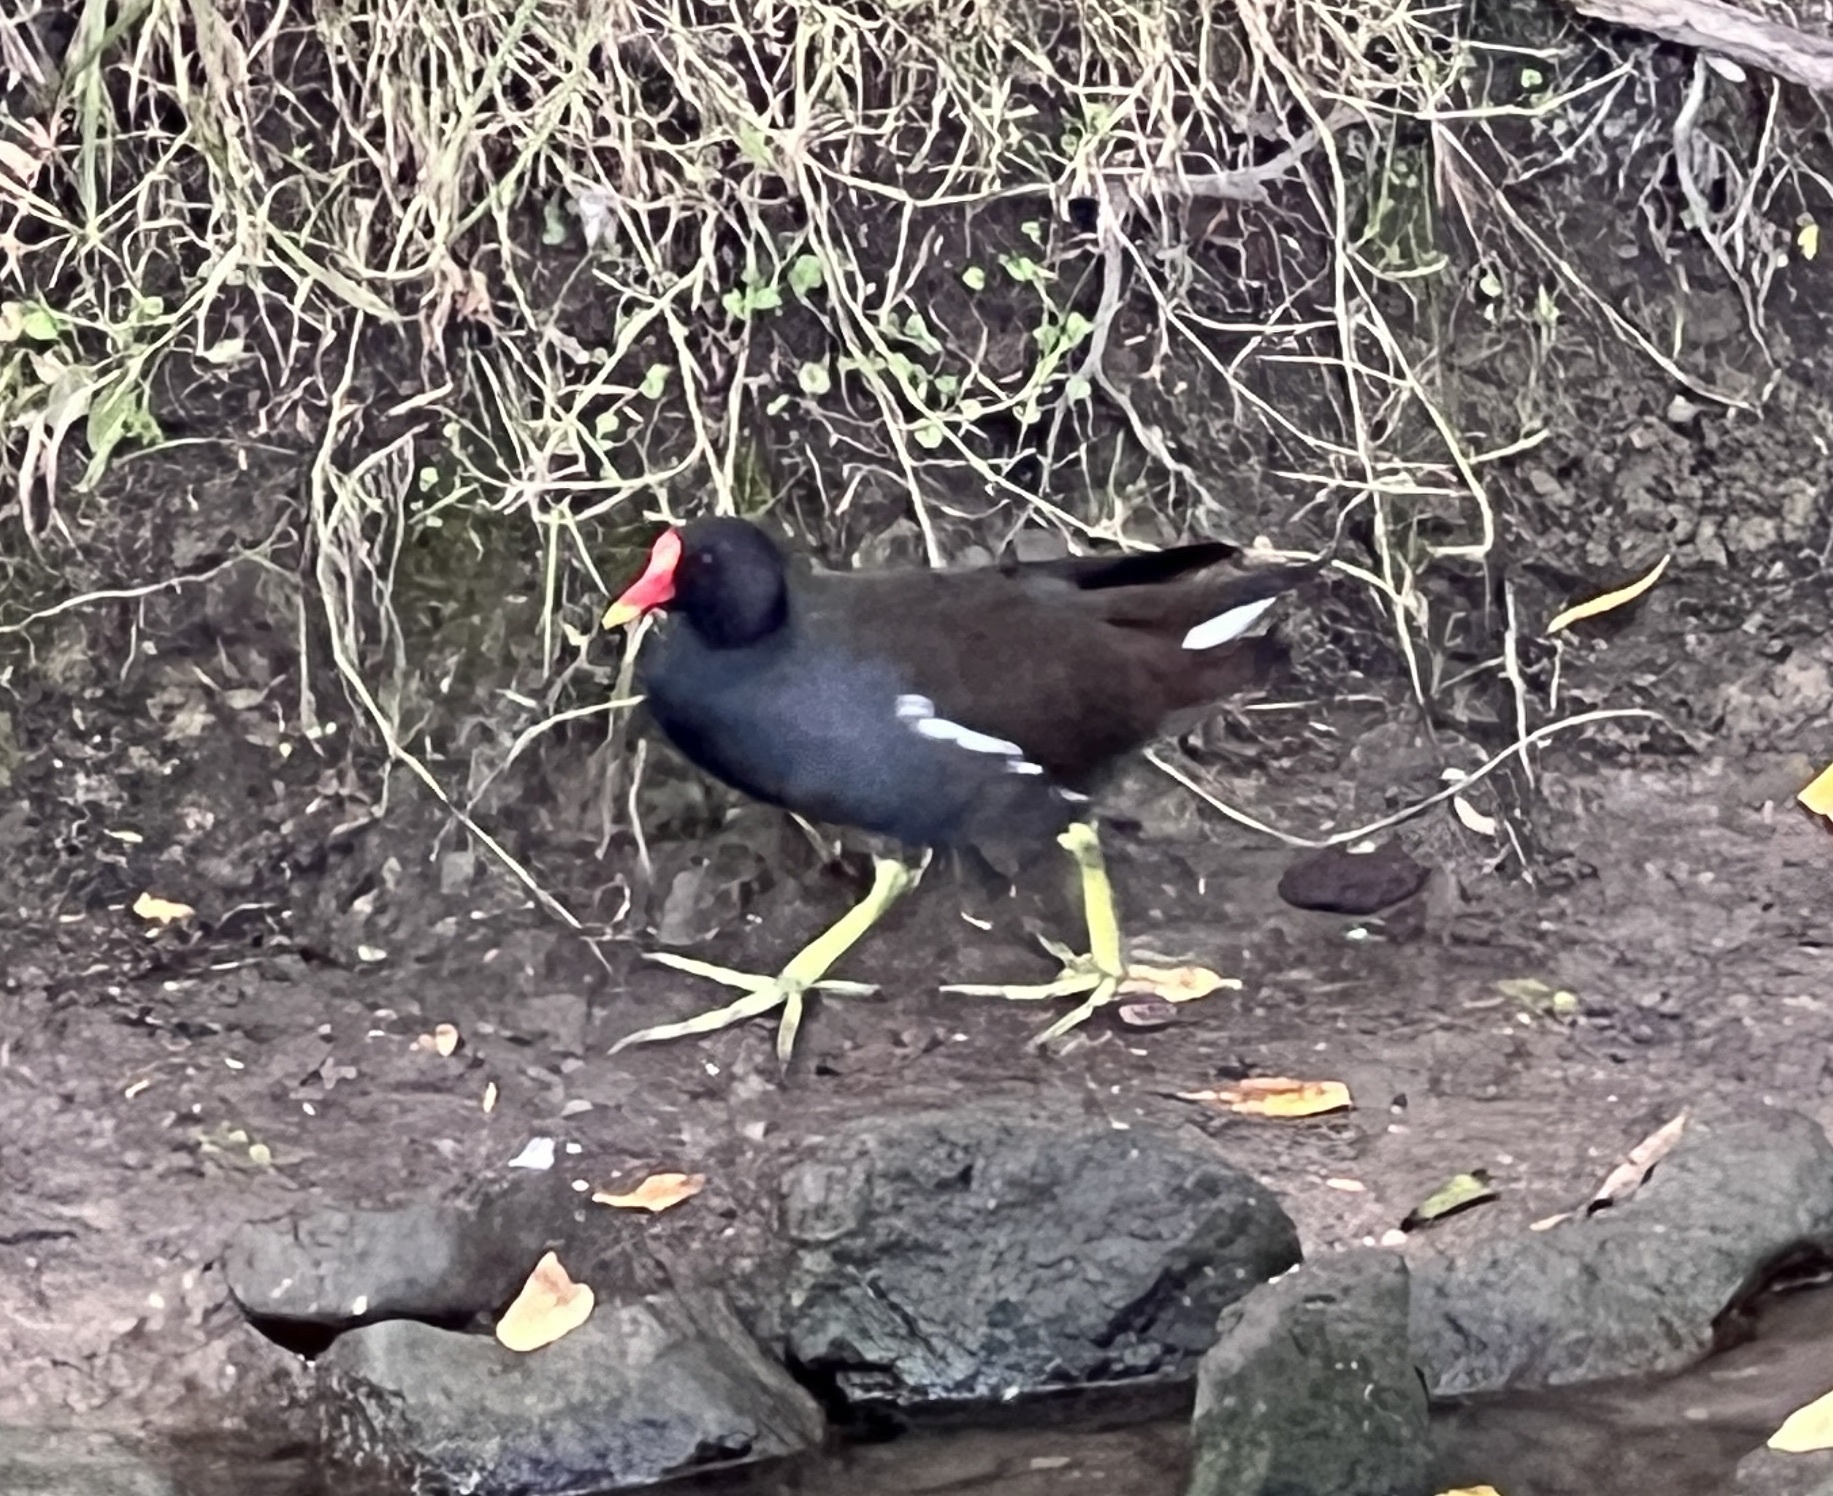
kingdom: Animalia
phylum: Chordata
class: Aves
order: Gruiformes
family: Rallidae
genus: Gallinula
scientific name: Gallinula chloropus
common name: Common moorhen
